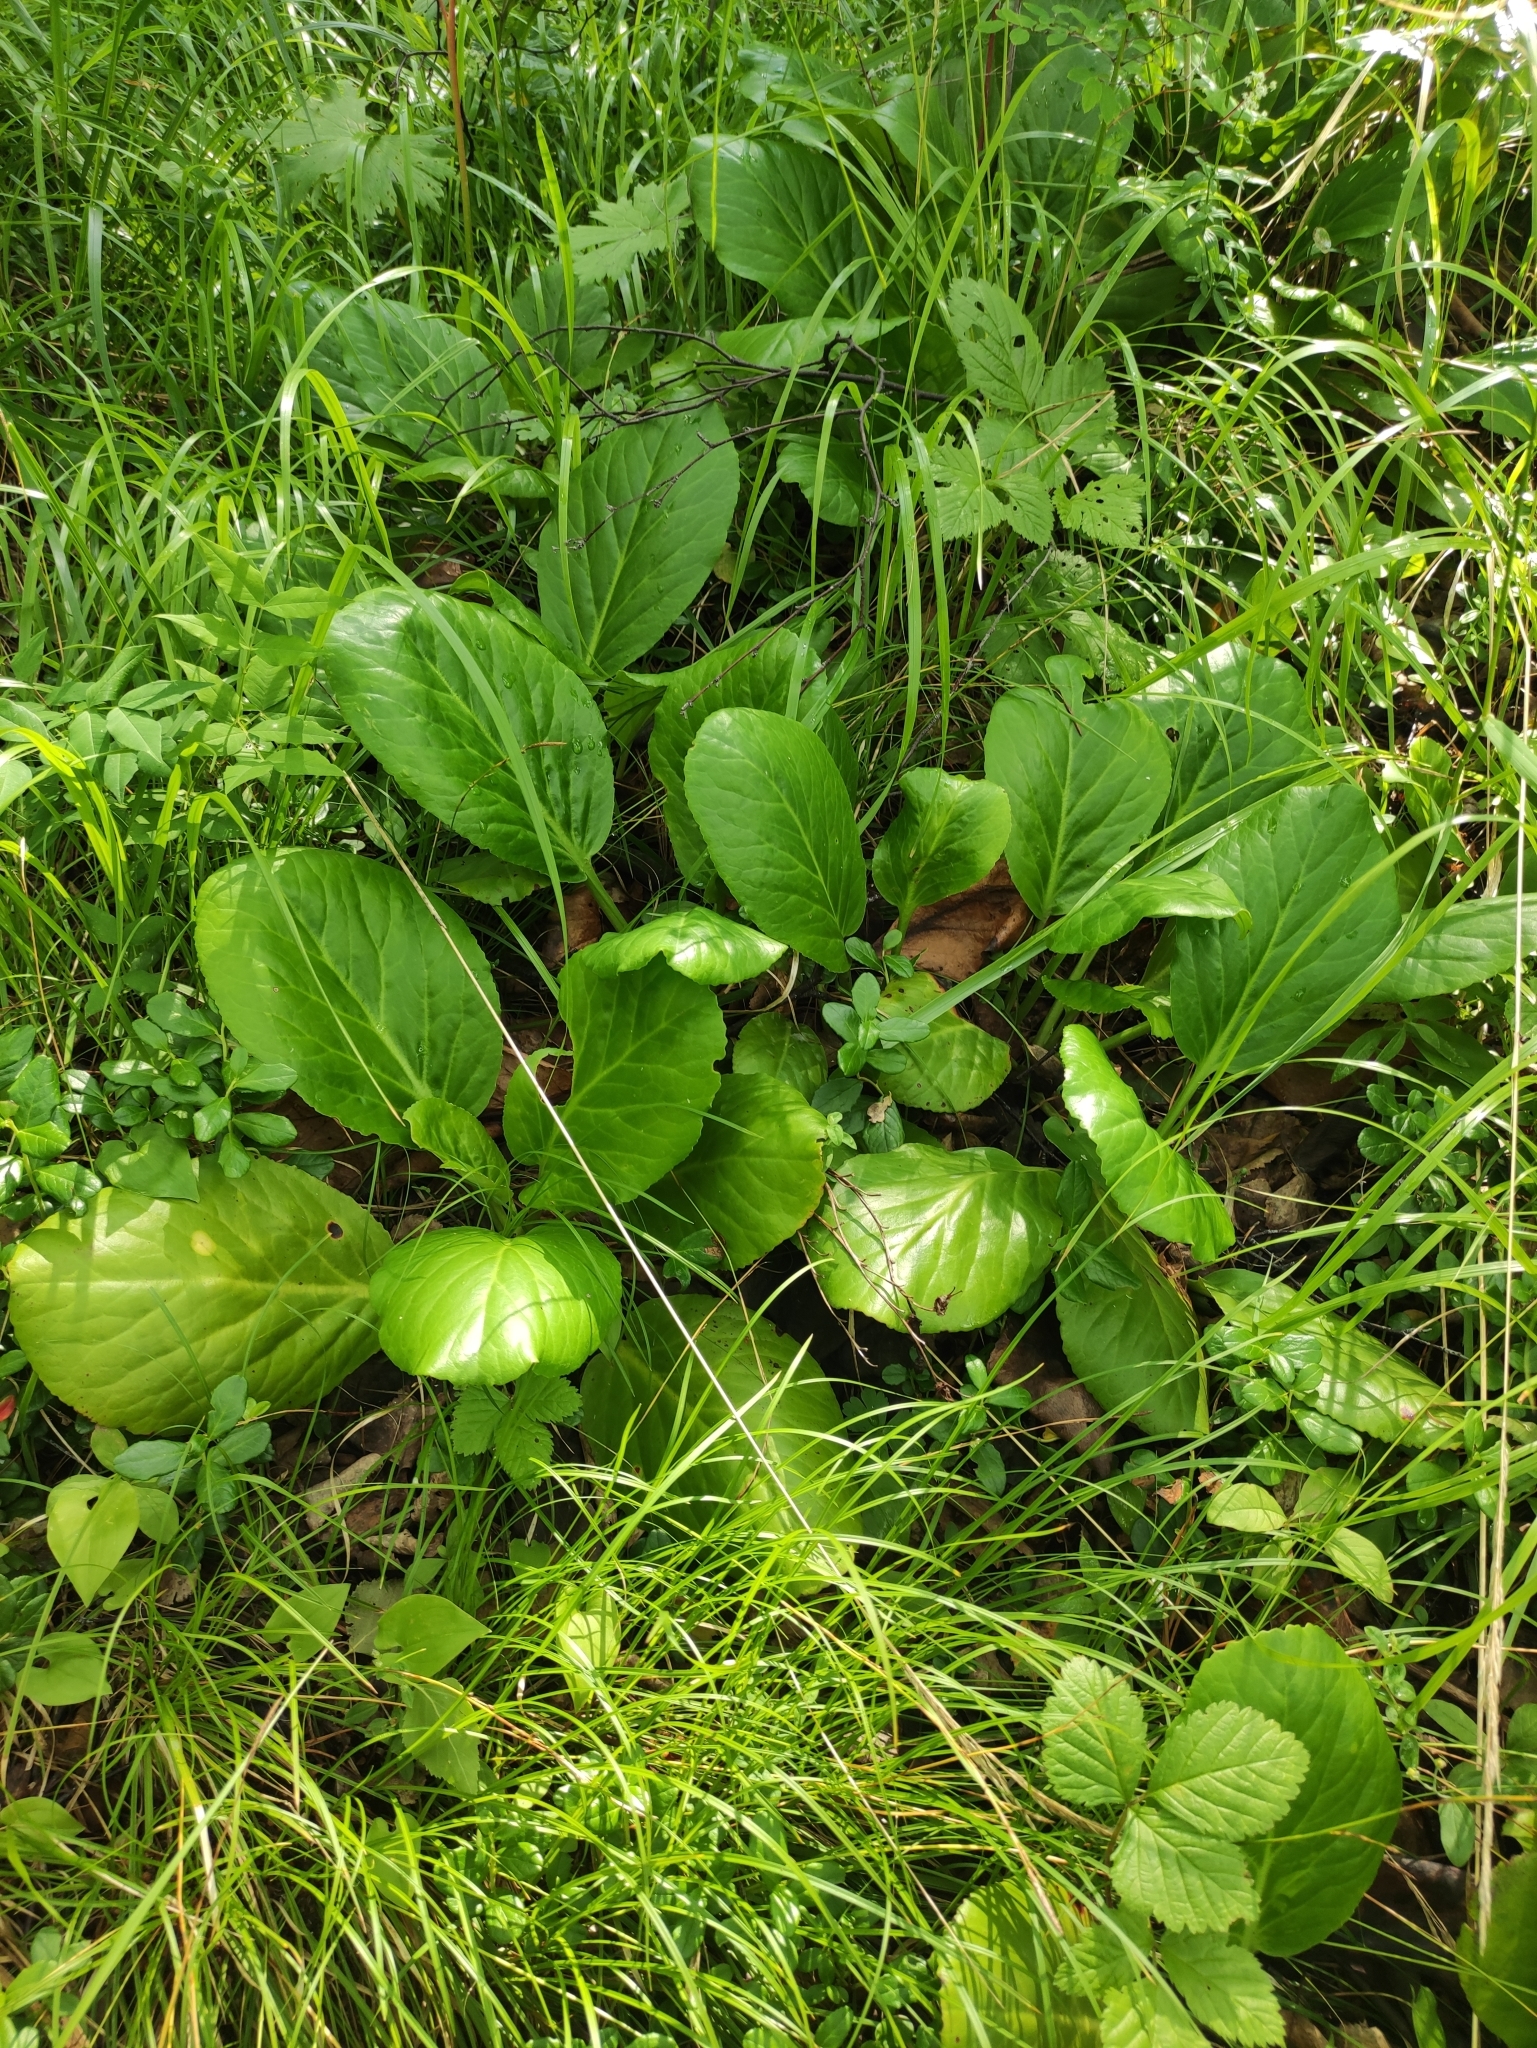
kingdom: Plantae
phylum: Tracheophyta
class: Magnoliopsida
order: Saxifragales
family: Saxifragaceae
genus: Bergenia
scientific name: Bergenia crassifolia
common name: Elephant-ears
